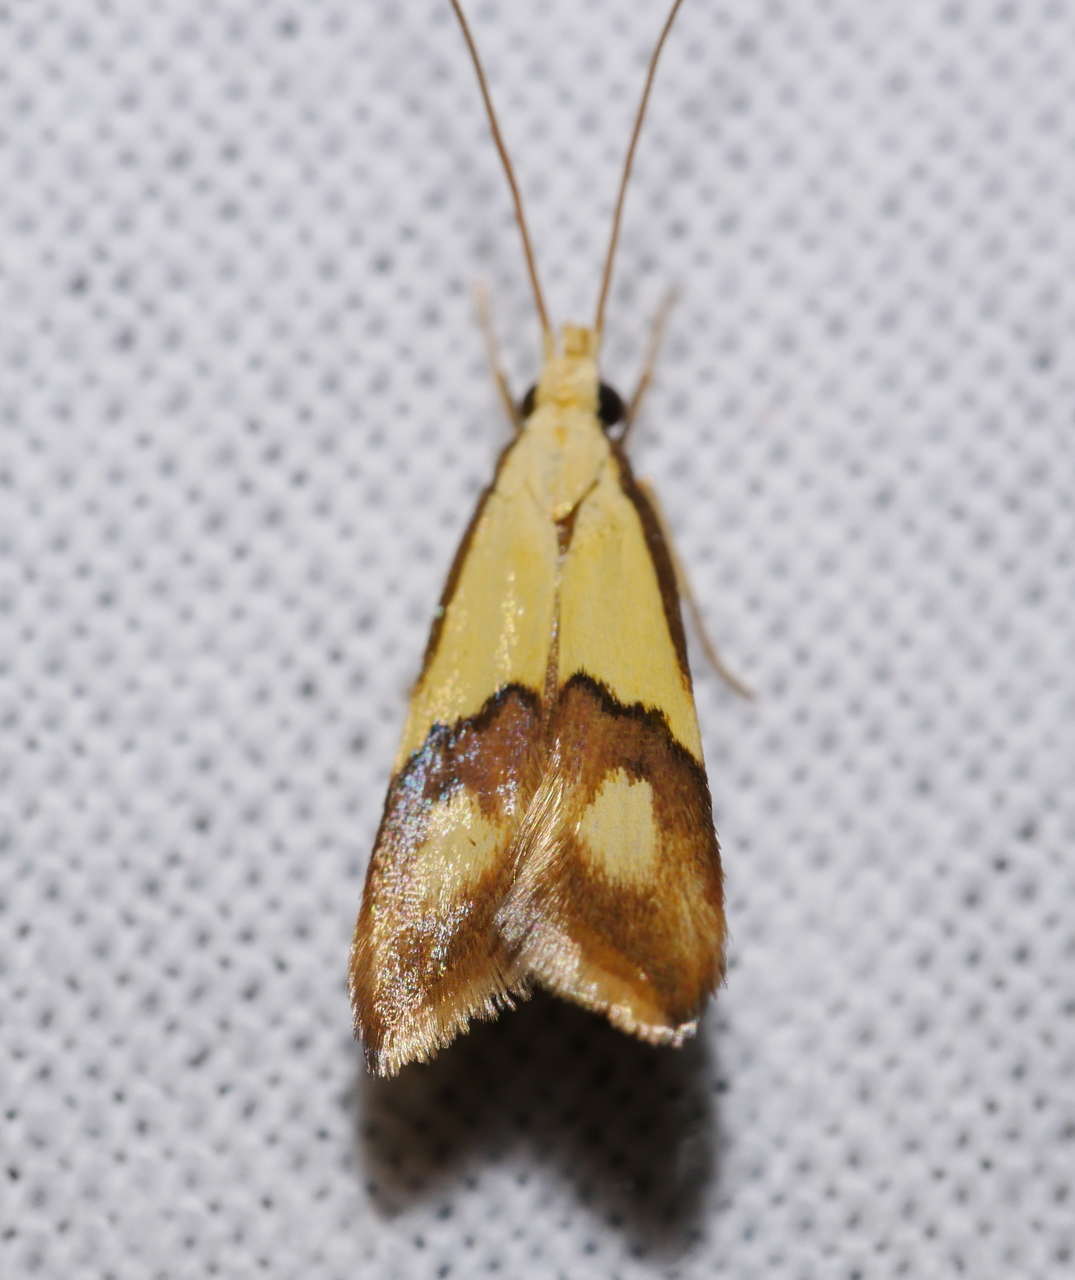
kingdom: Animalia
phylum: Arthropoda
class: Insecta
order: Lepidoptera
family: Lecithoceridae
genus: Crocanthes
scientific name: Crocanthes glycina
